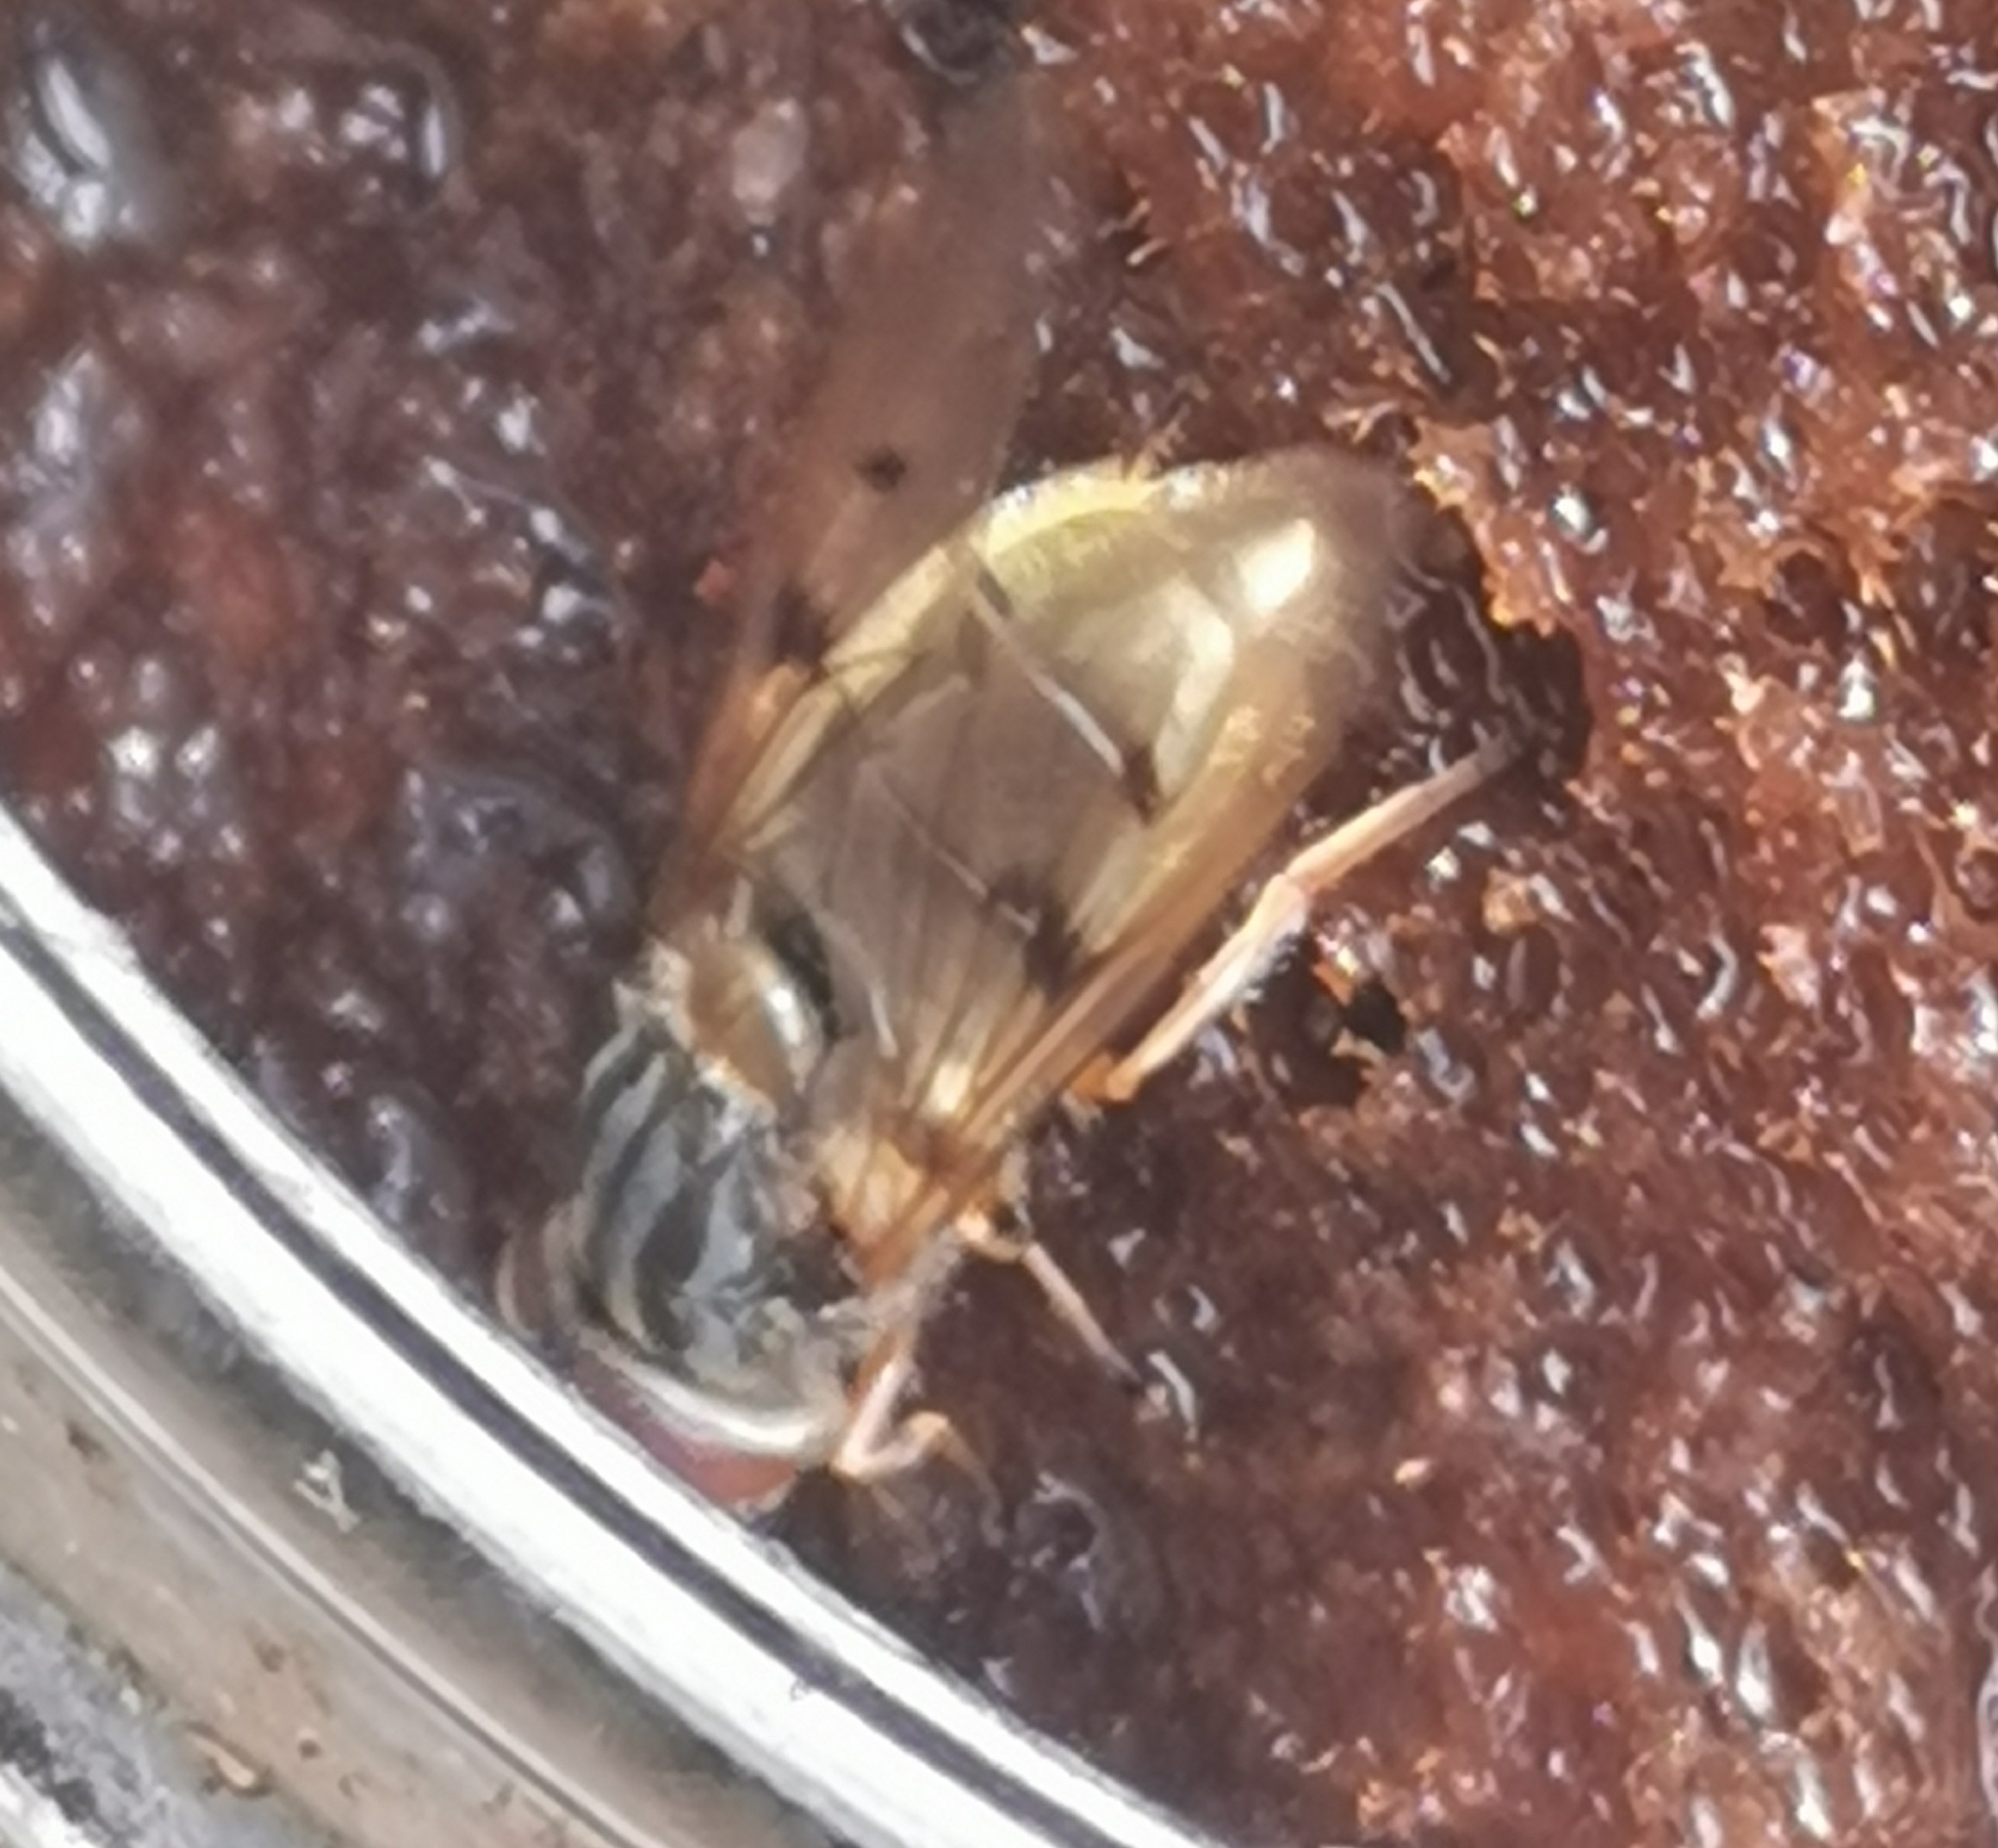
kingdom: Animalia
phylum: Arthropoda
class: Insecta
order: Diptera
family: Syrphidae
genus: Ferdinandea
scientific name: Ferdinandea cuprea
